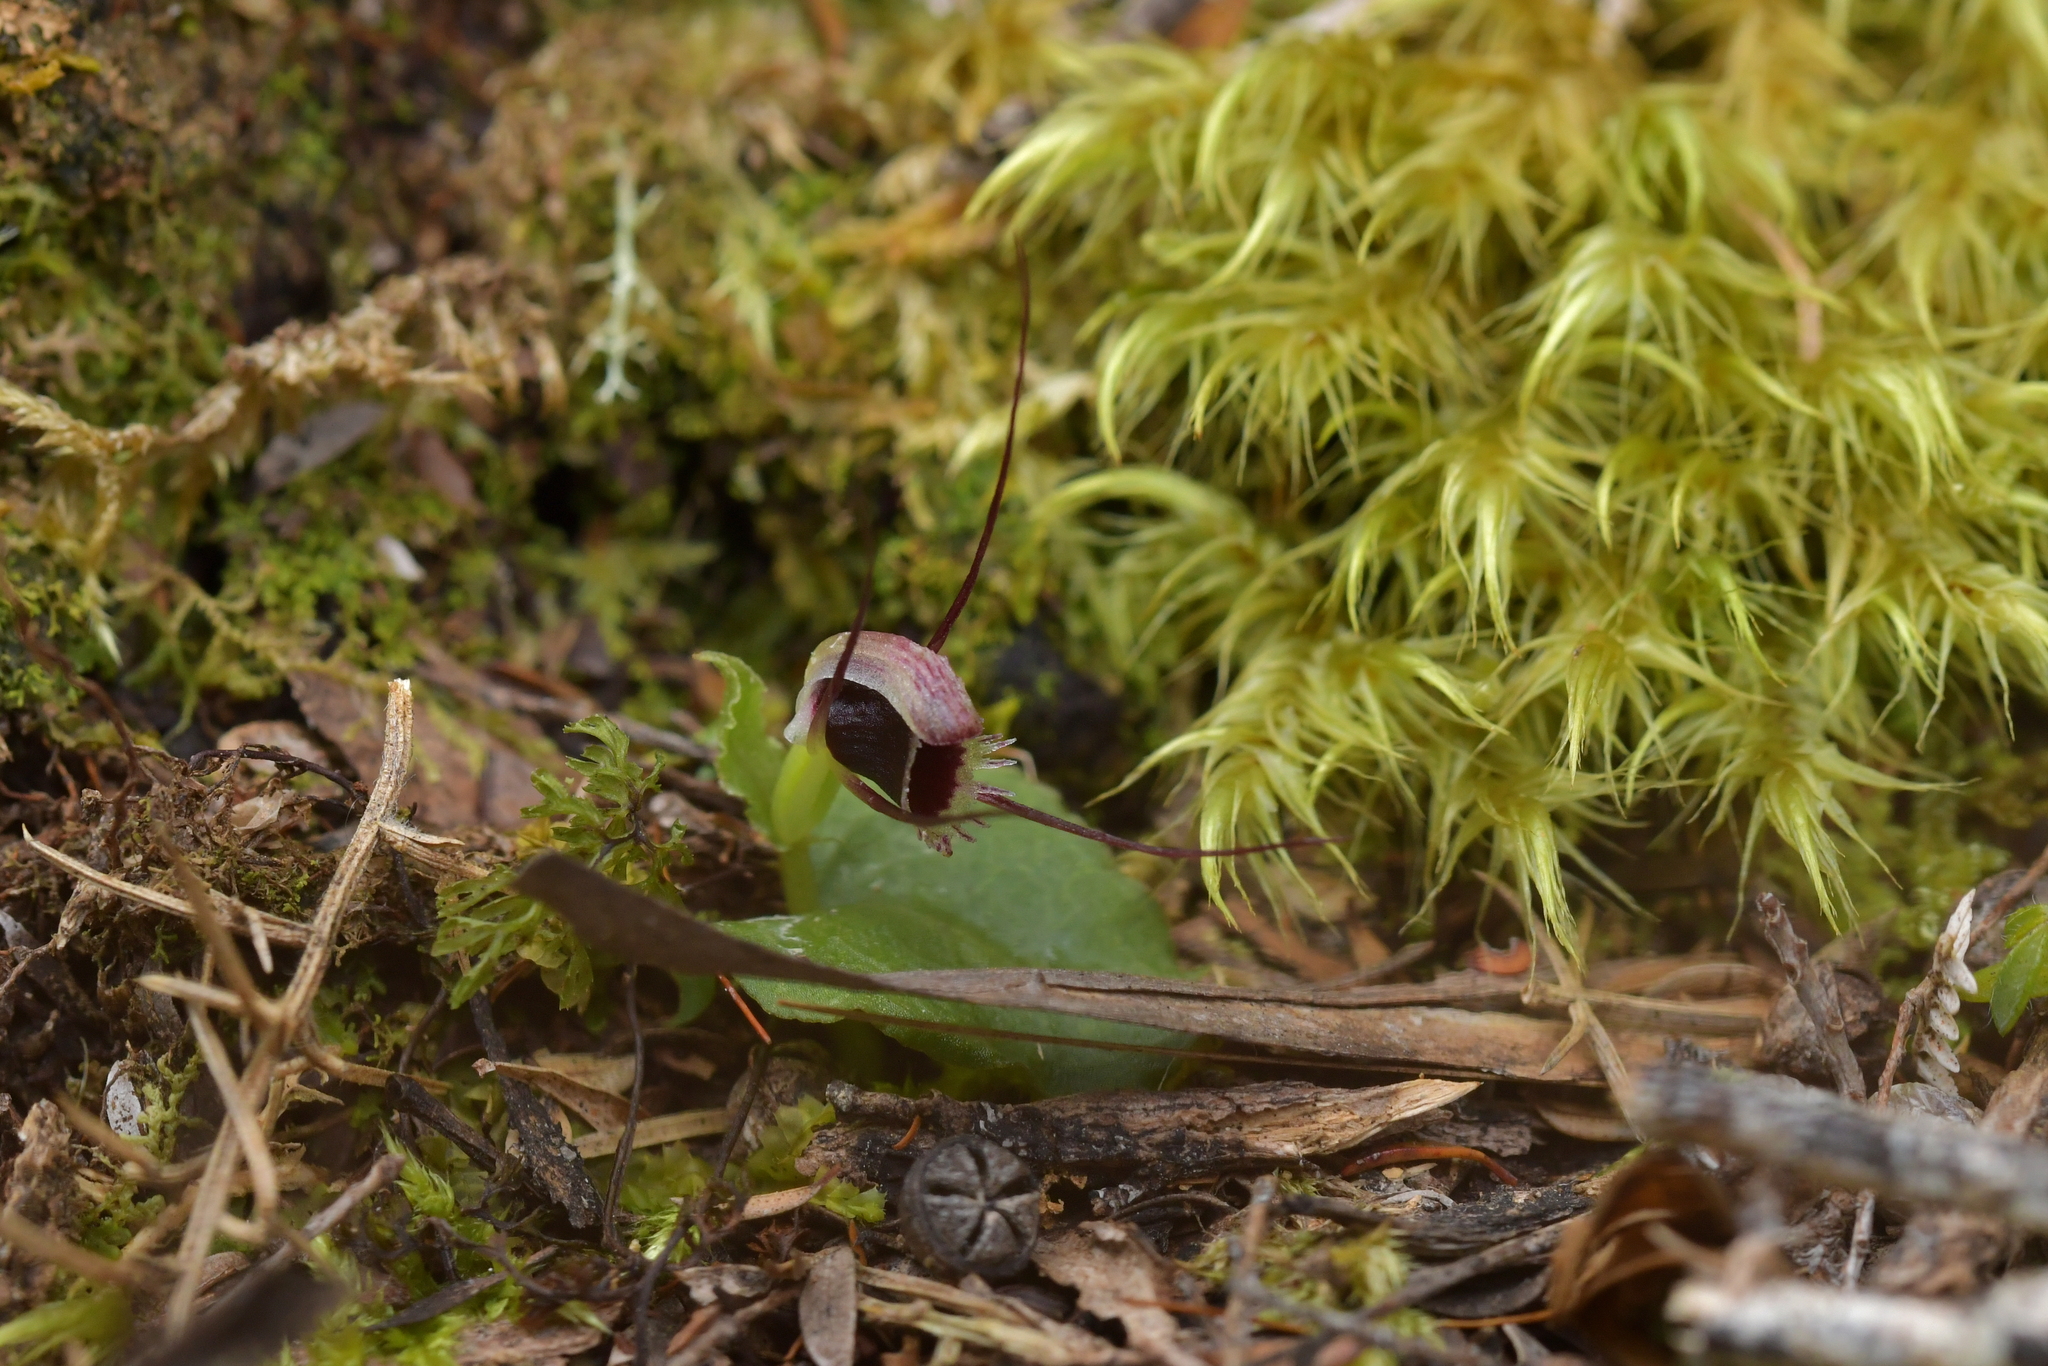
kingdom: Plantae
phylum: Tracheophyta
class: Liliopsida
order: Asparagales
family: Orchidaceae
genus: Corybas
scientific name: Corybas oblongus
